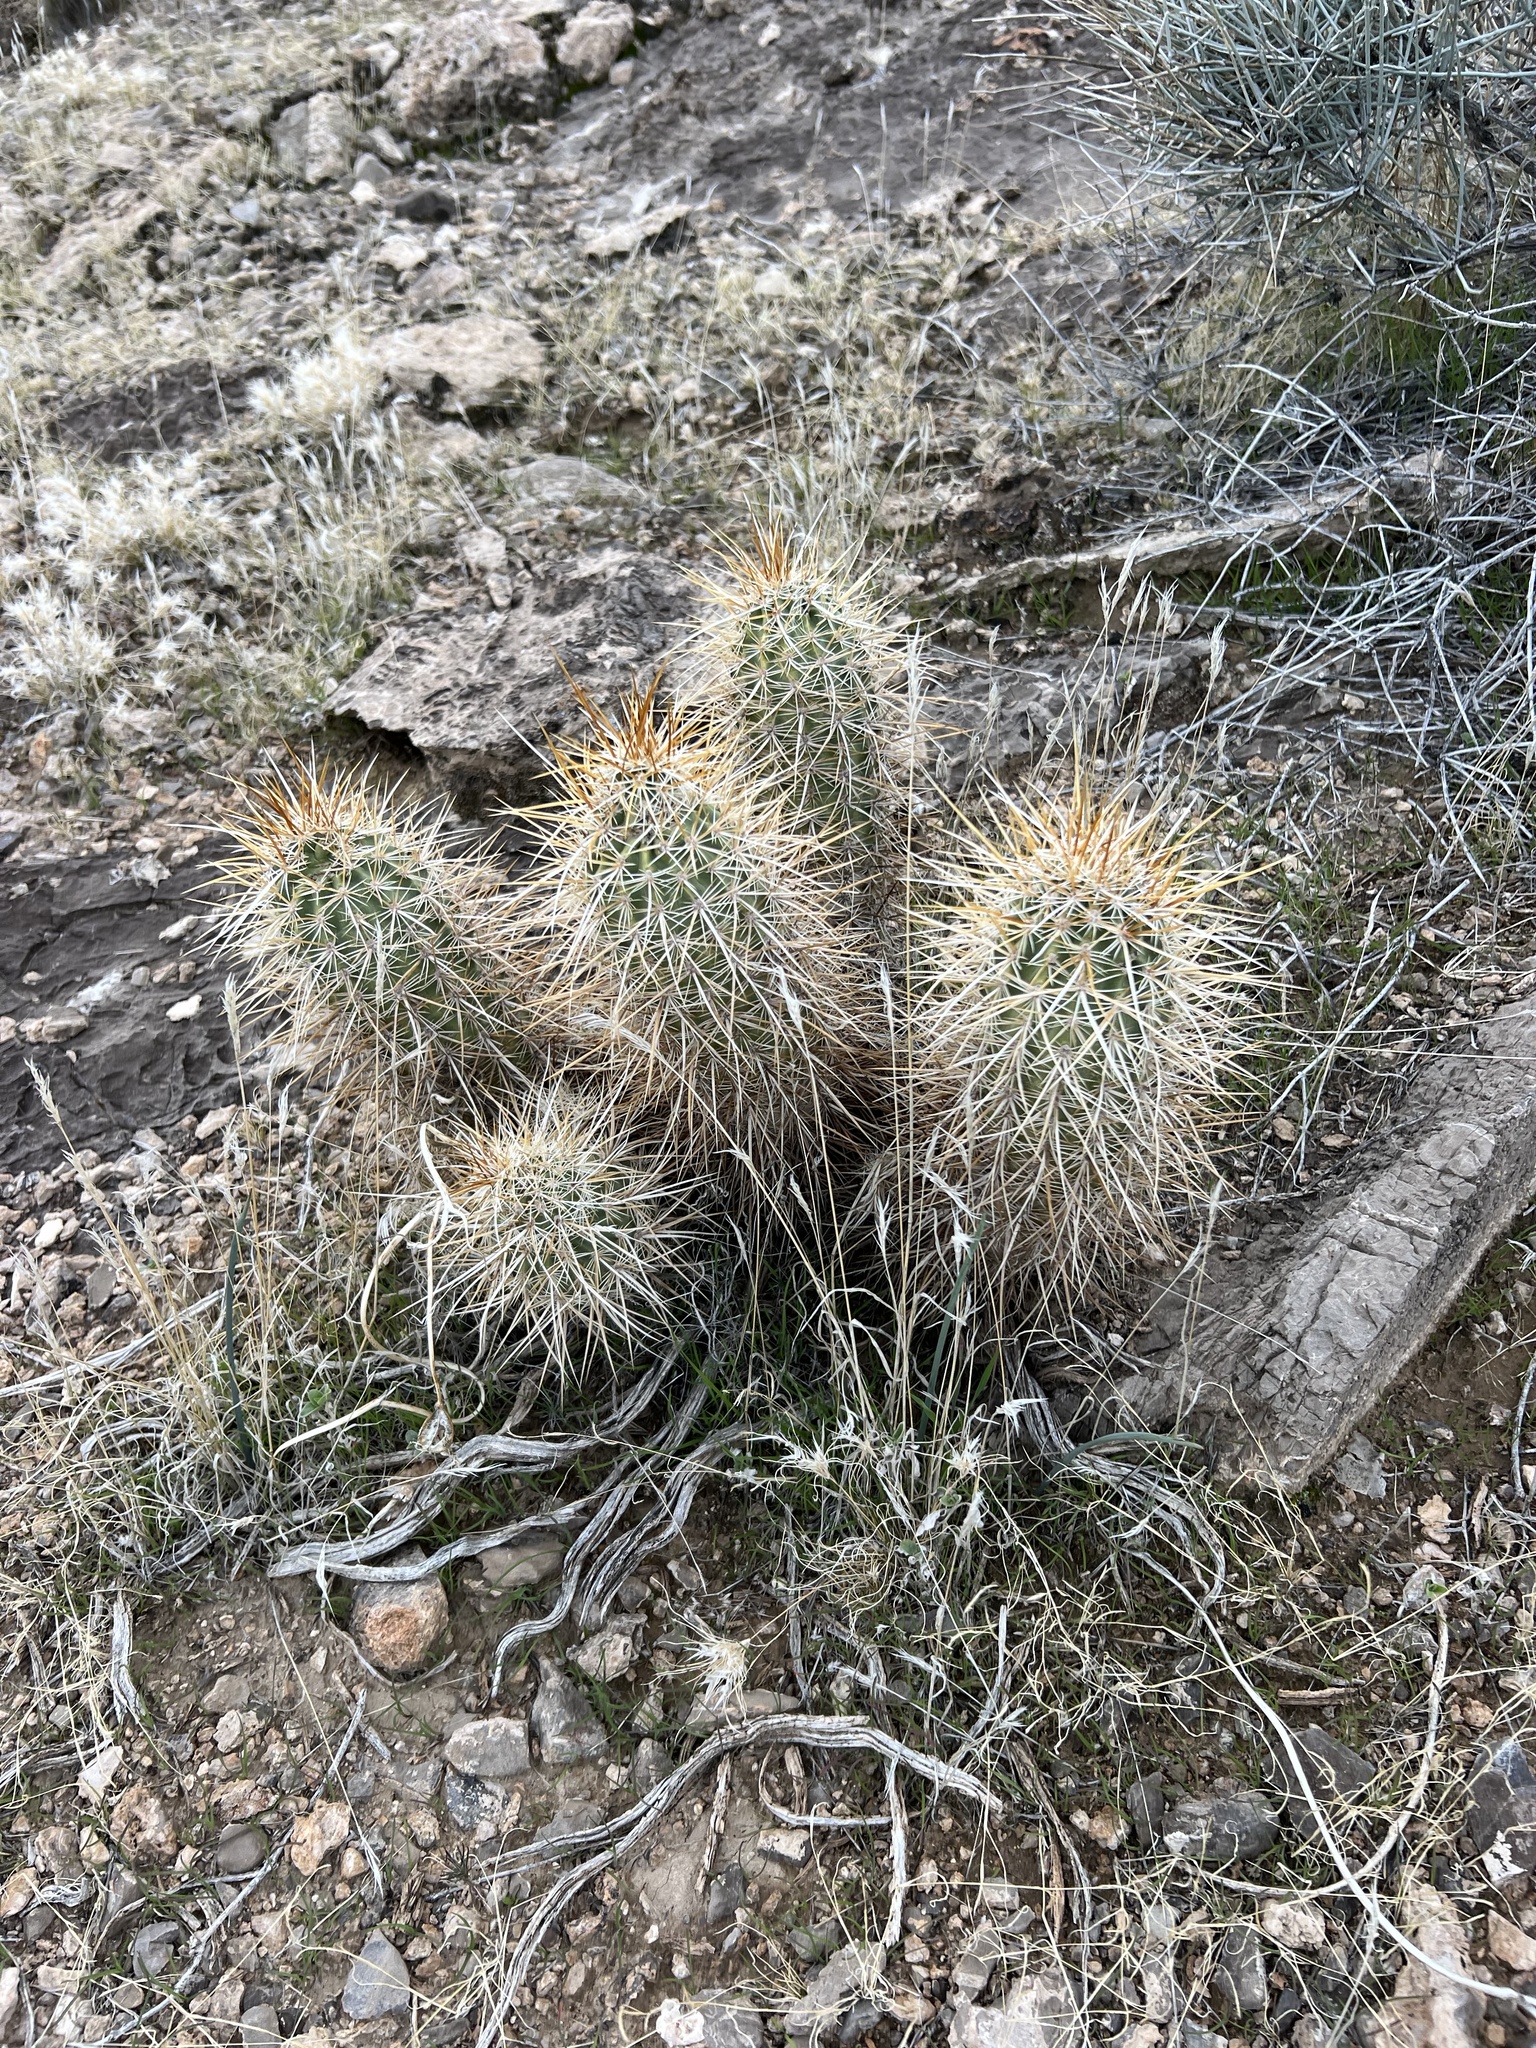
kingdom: Plantae
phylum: Tracheophyta
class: Magnoliopsida
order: Caryophyllales
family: Cactaceae
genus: Echinocereus
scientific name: Echinocereus engelmannii
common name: Engelmann's hedgehog cactus
